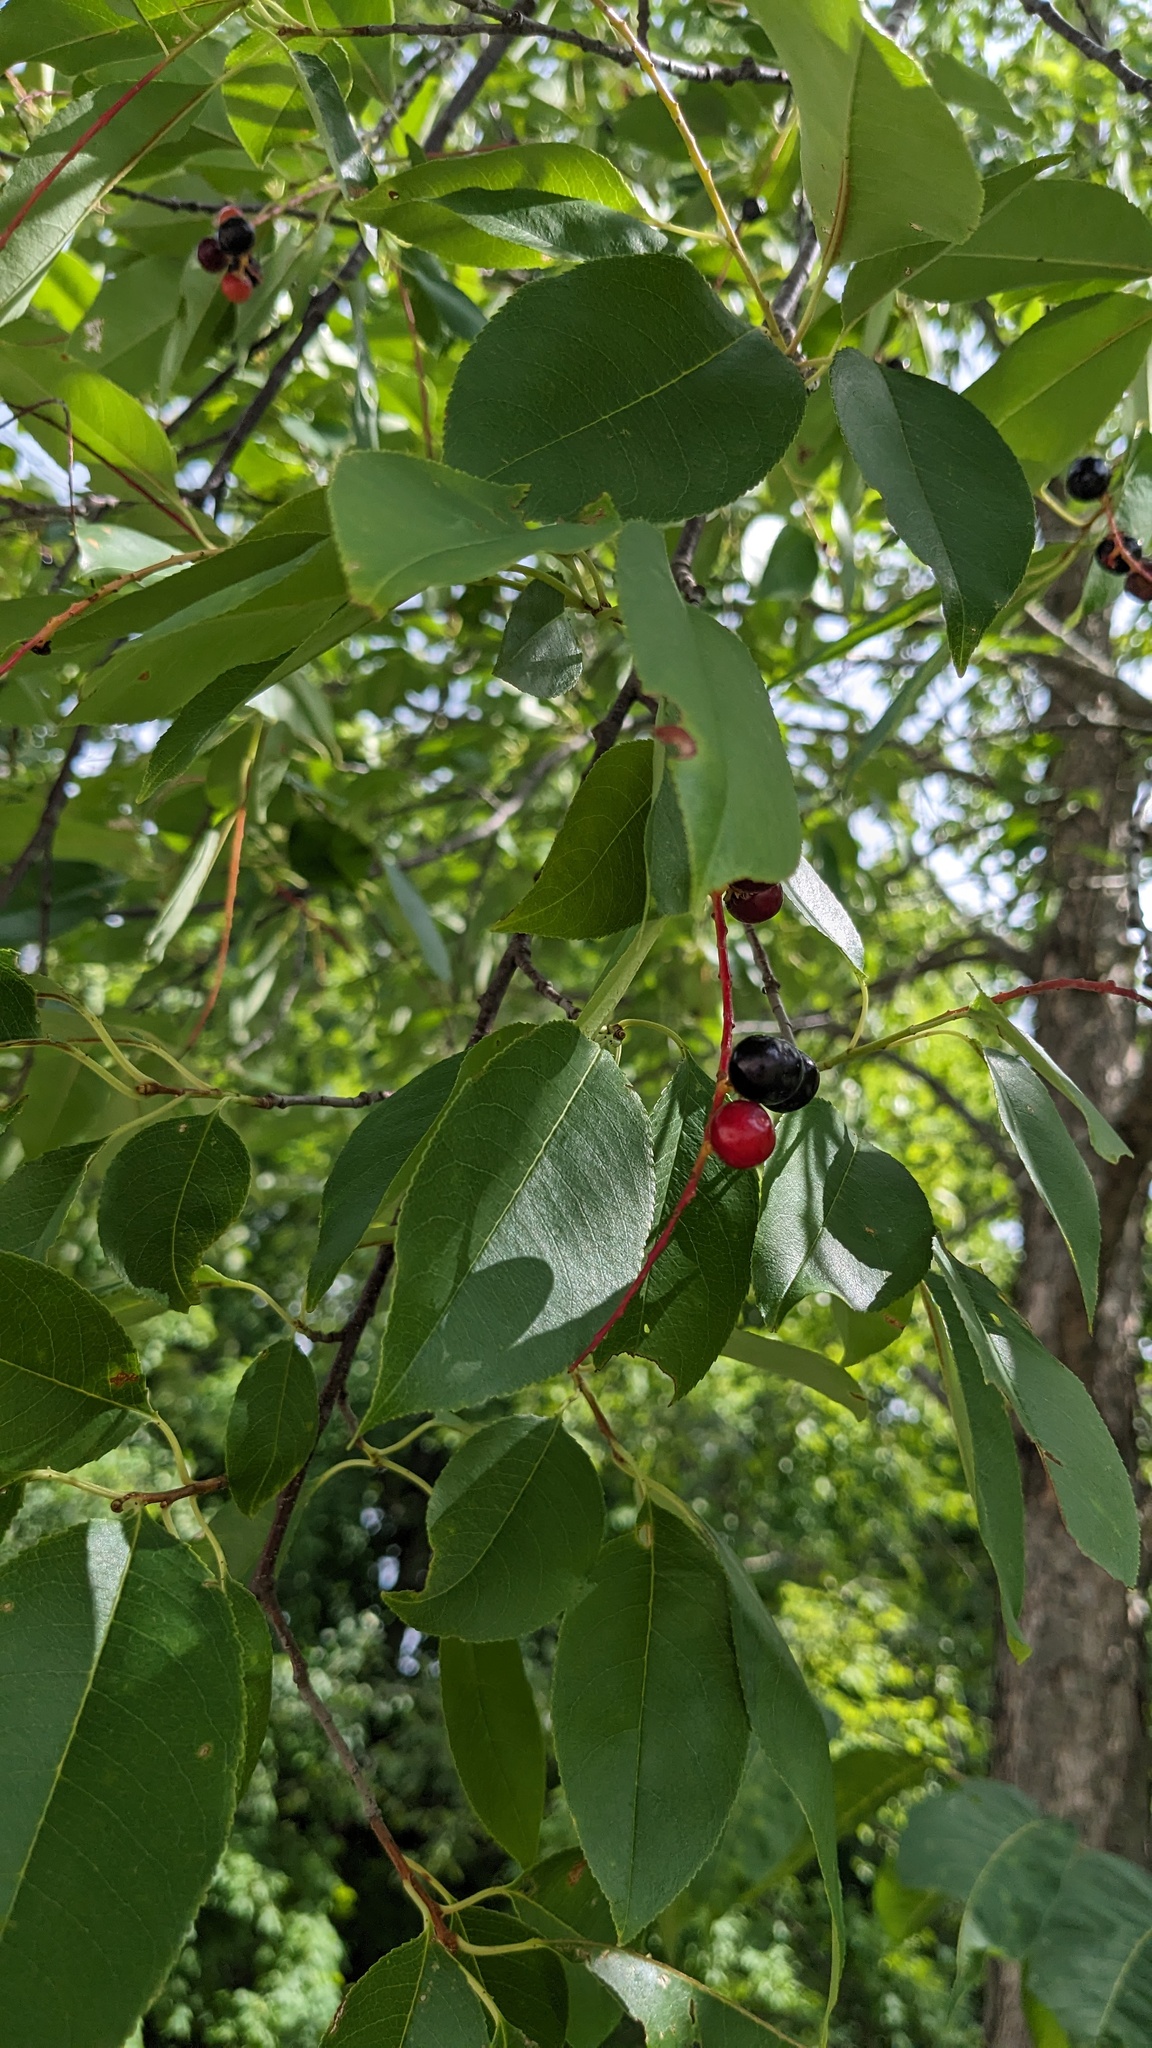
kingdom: Plantae
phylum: Tracheophyta
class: Magnoliopsida
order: Rosales
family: Rosaceae
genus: Prunus
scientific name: Prunus serotina
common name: Black cherry
